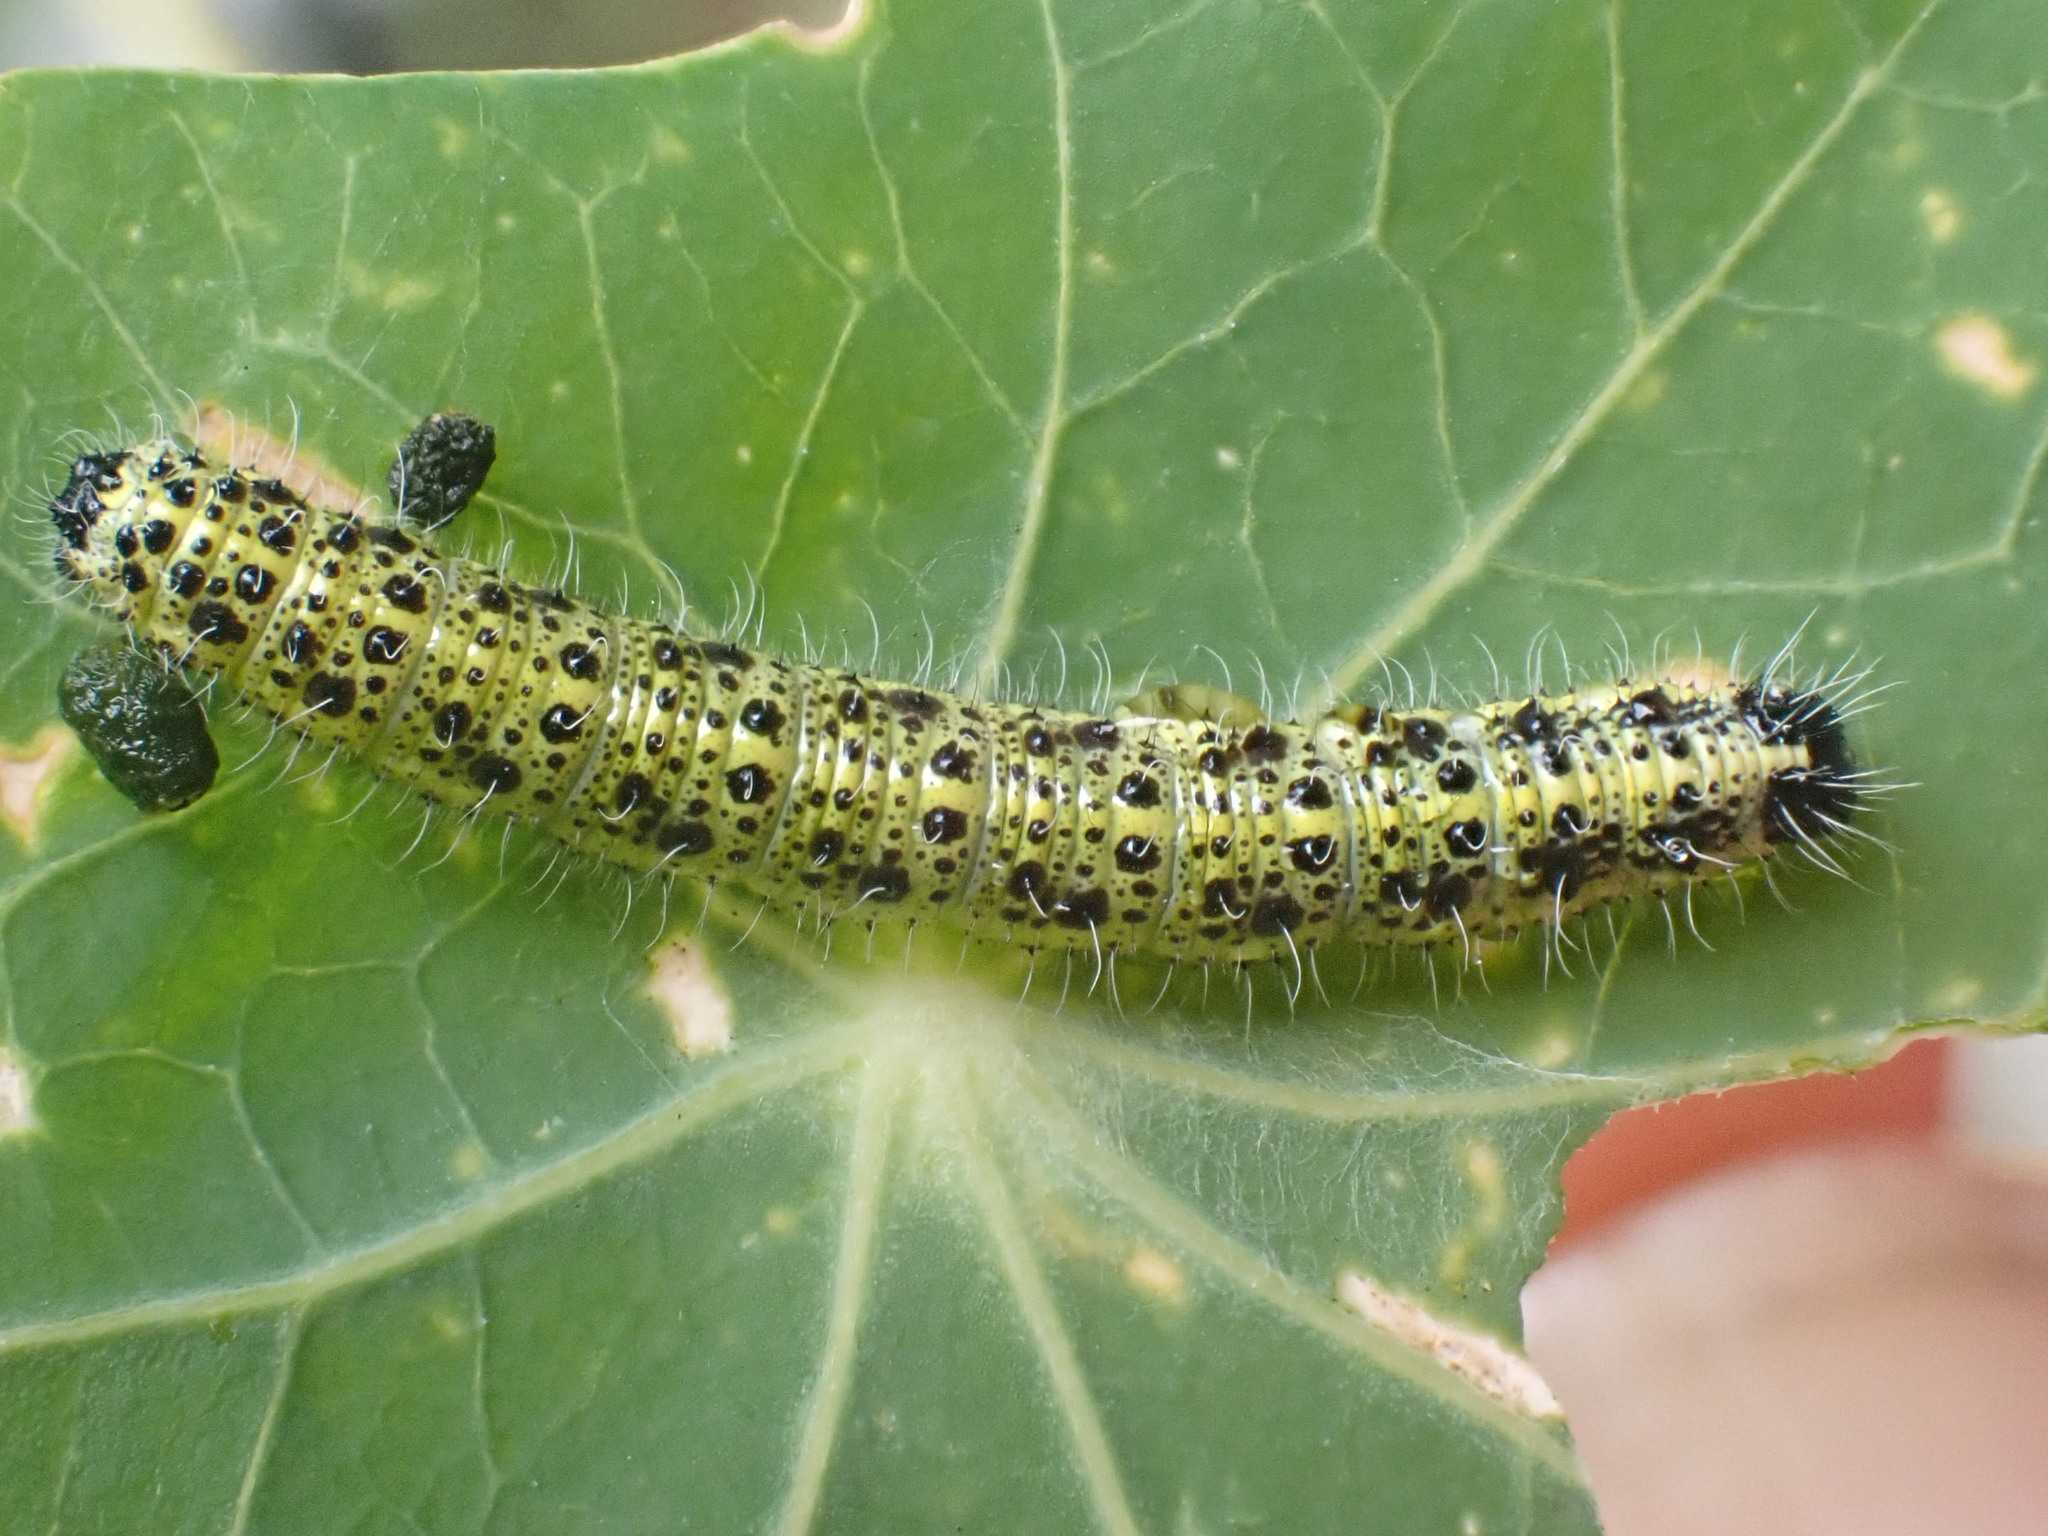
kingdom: Animalia
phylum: Arthropoda
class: Insecta
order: Lepidoptera
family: Pieridae
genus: Pieris
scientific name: Pieris brassicae
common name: Large white
